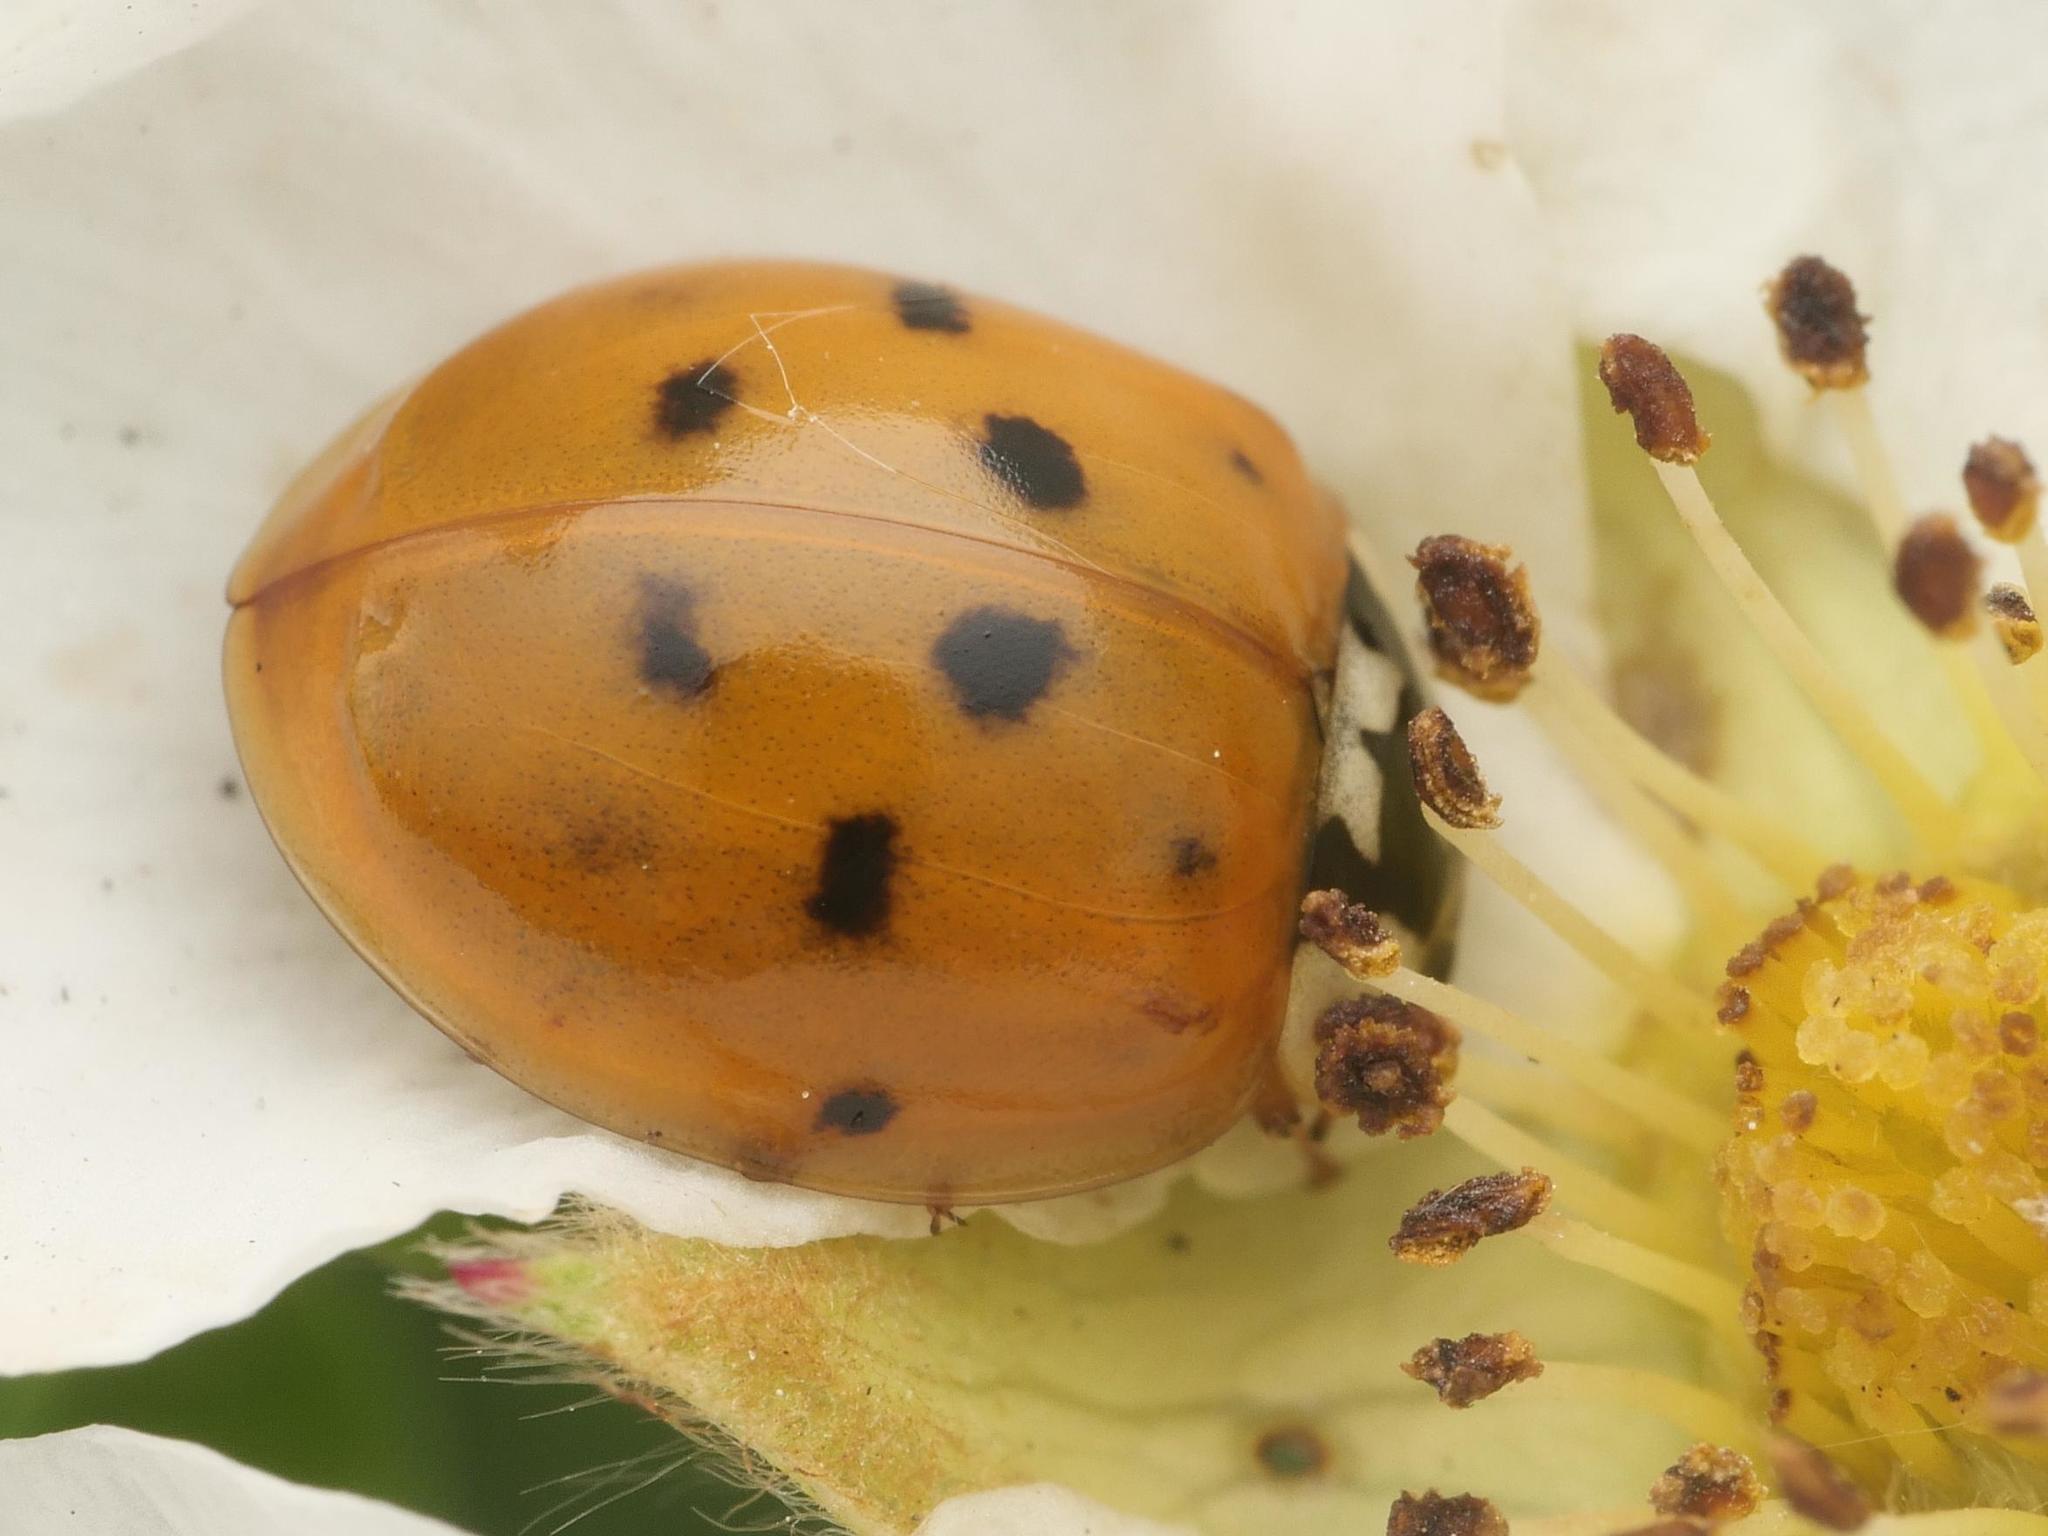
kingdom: Animalia
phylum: Arthropoda
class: Insecta
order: Coleoptera
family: Coccinellidae
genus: Harmonia
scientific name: Harmonia axyridis
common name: Harlequin ladybird
